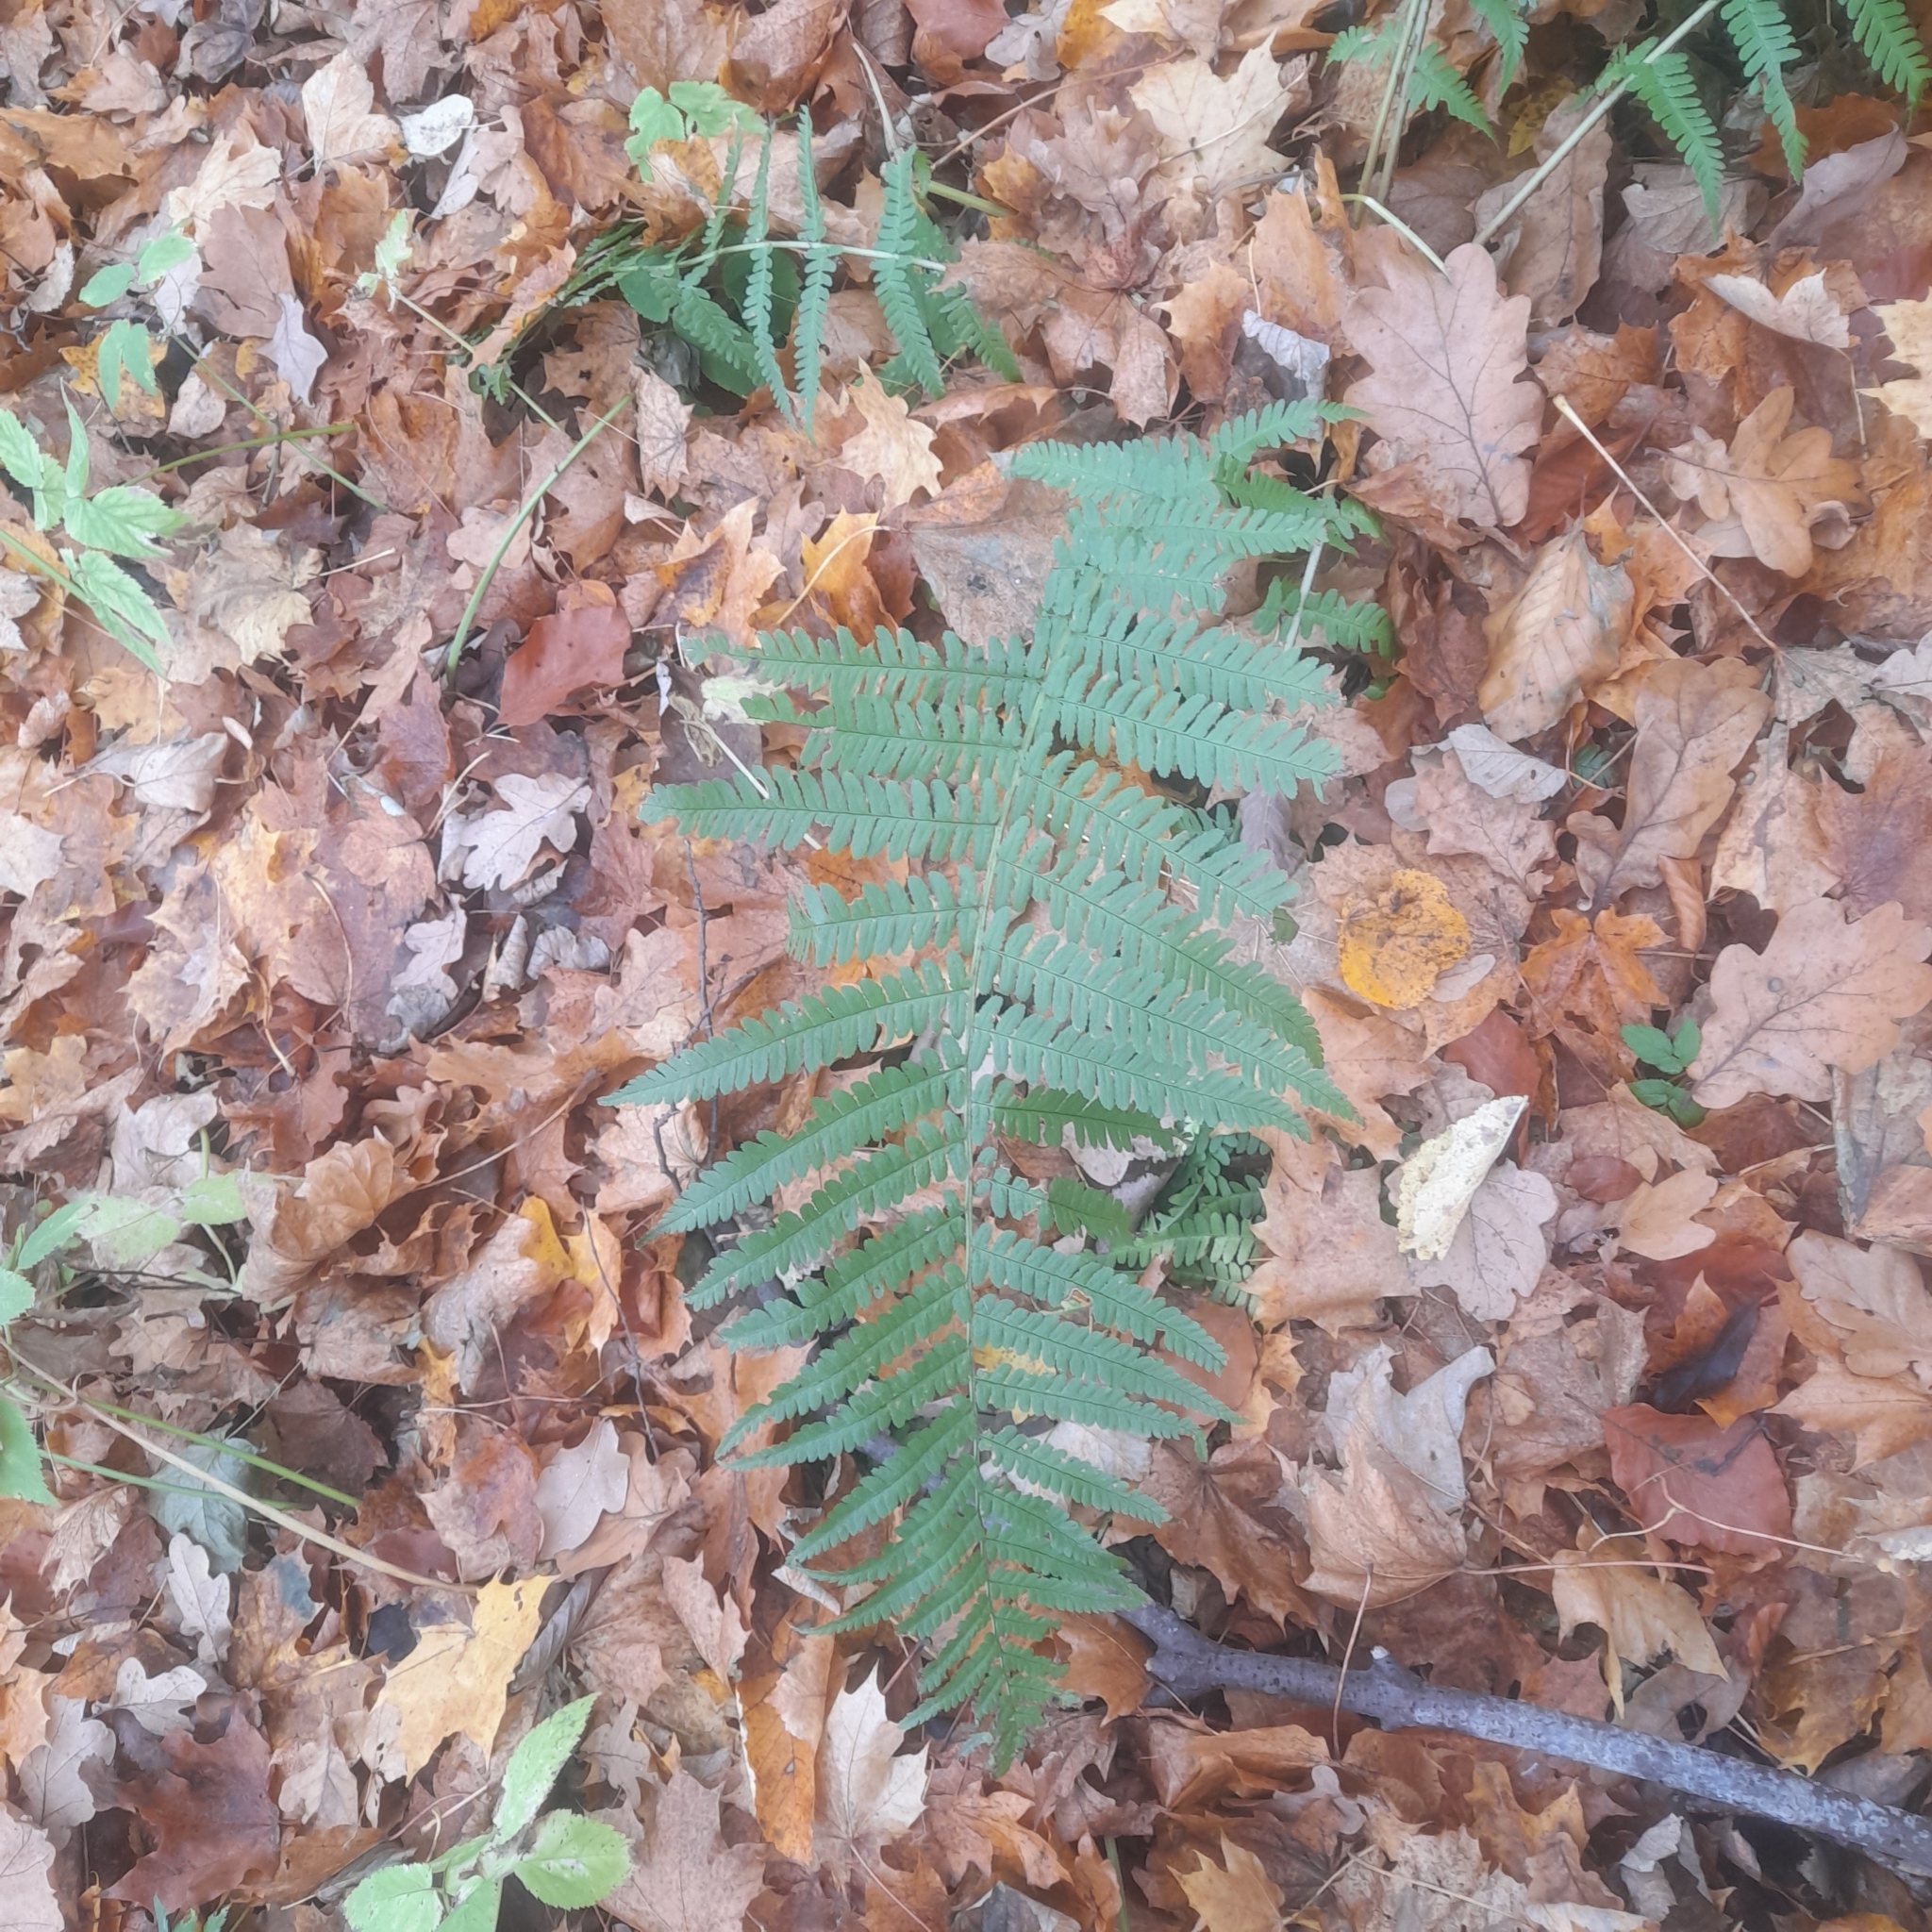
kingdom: Plantae
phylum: Tracheophyta
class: Polypodiopsida
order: Polypodiales
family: Dryopteridaceae
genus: Dryopteris
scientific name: Dryopteris filix-mas
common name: Male fern
